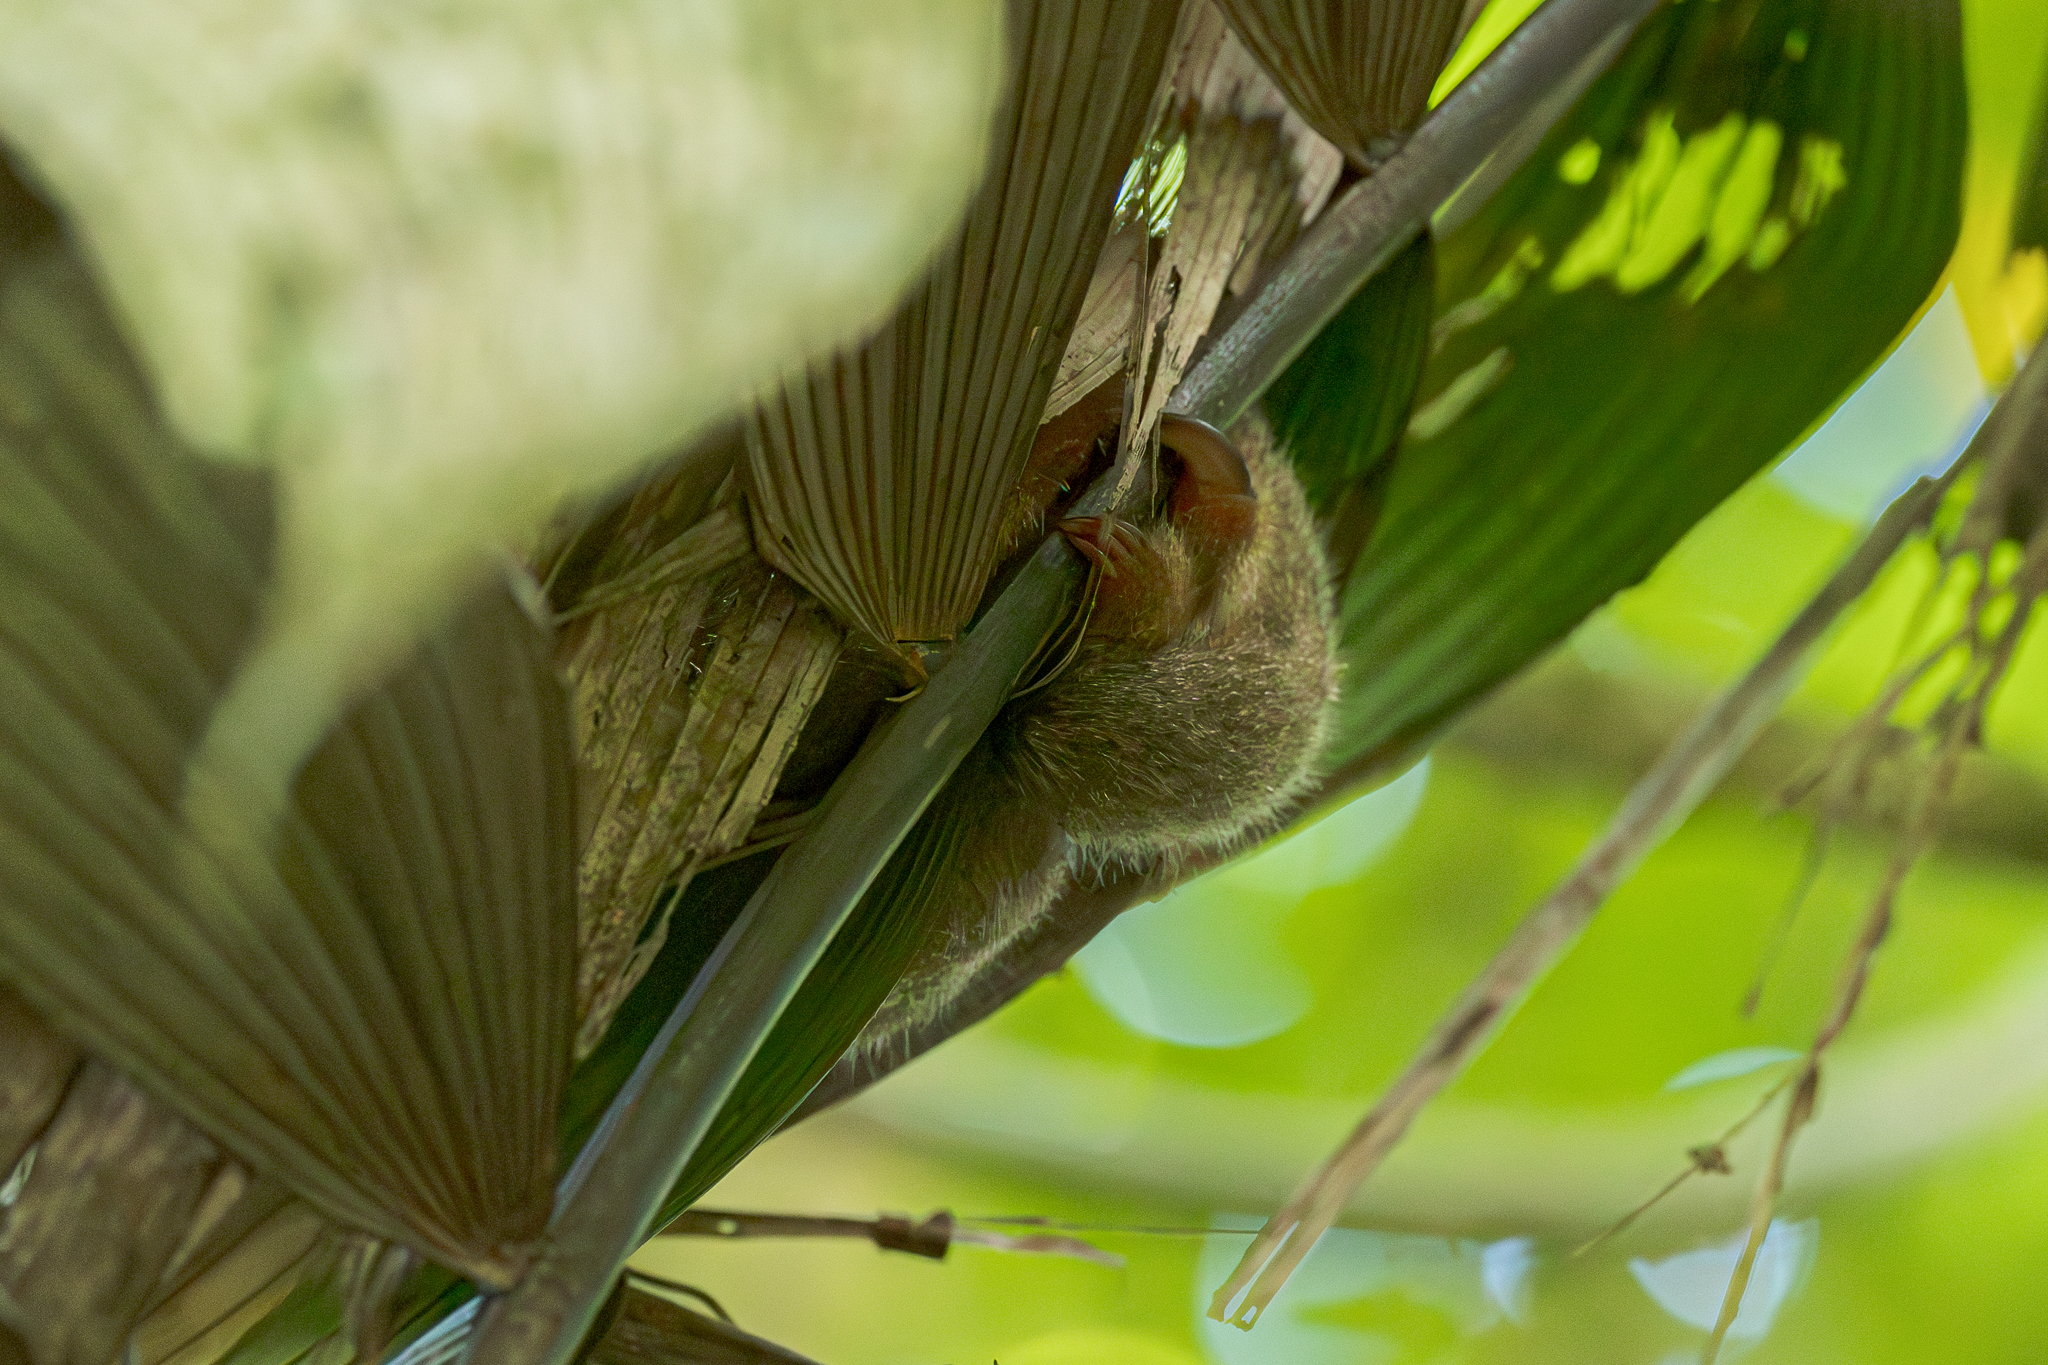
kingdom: Animalia
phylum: Chordata
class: Mammalia
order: Pilosa
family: Cyclopedidae
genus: Cyclopes
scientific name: Cyclopes dorsalis
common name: Central american silky anteater
